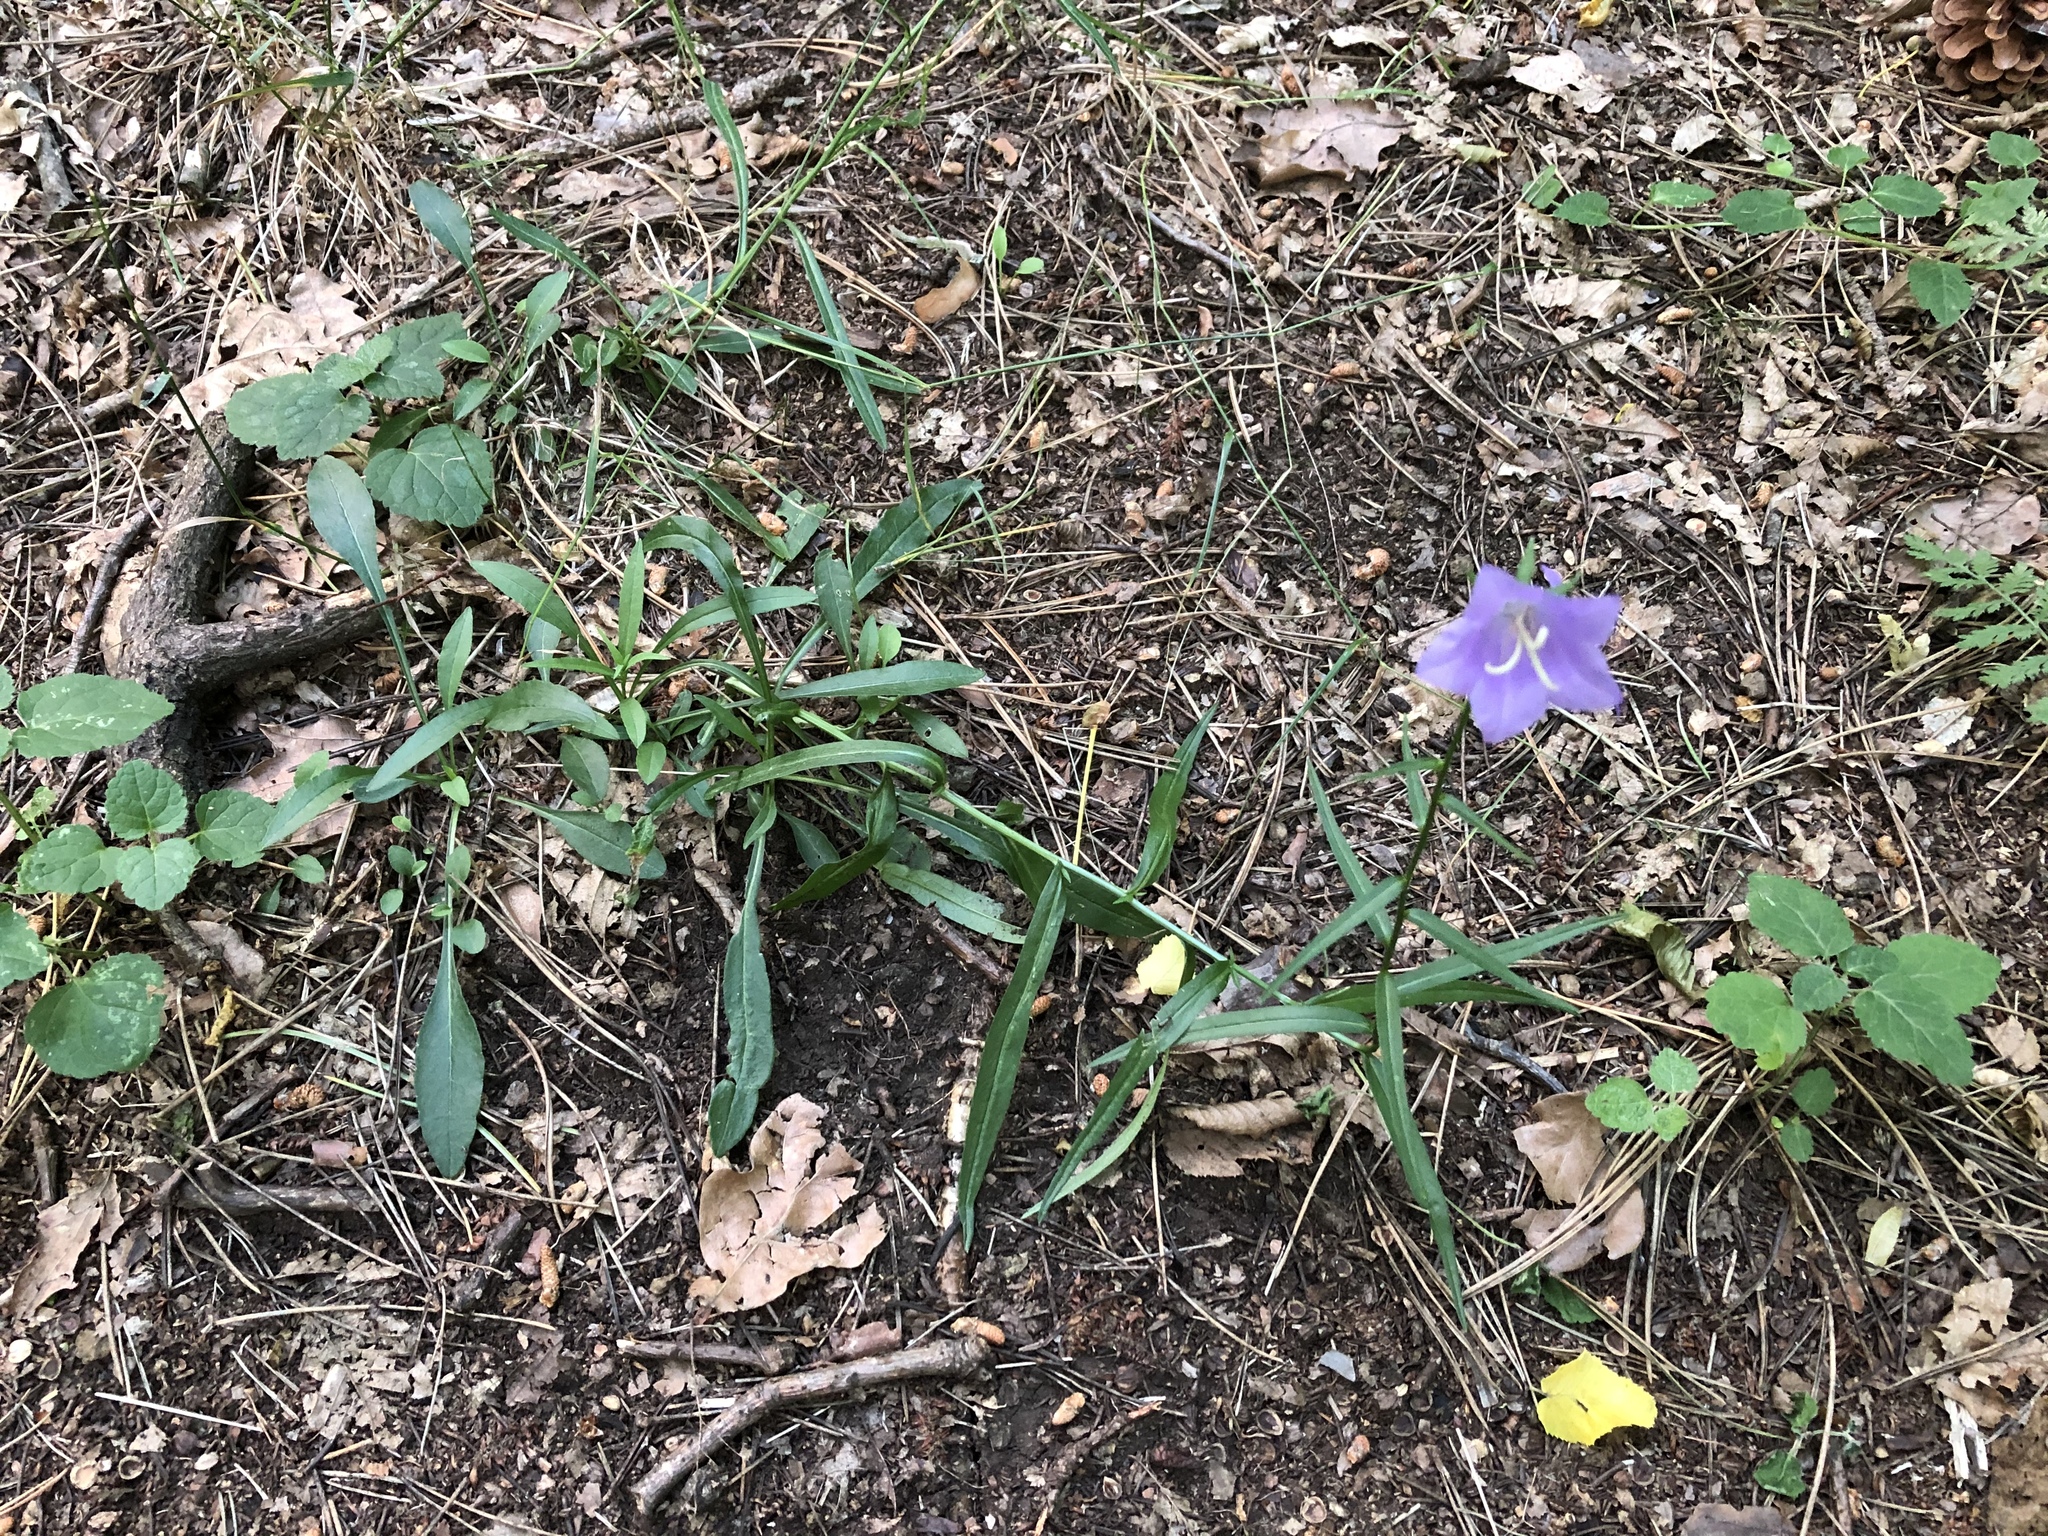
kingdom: Plantae
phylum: Tracheophyta
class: Magnoliopsida
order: Asterales
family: Campanulaceae
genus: Campanula
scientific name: Campanula persicifolia
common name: Peach-leaved bellflower
